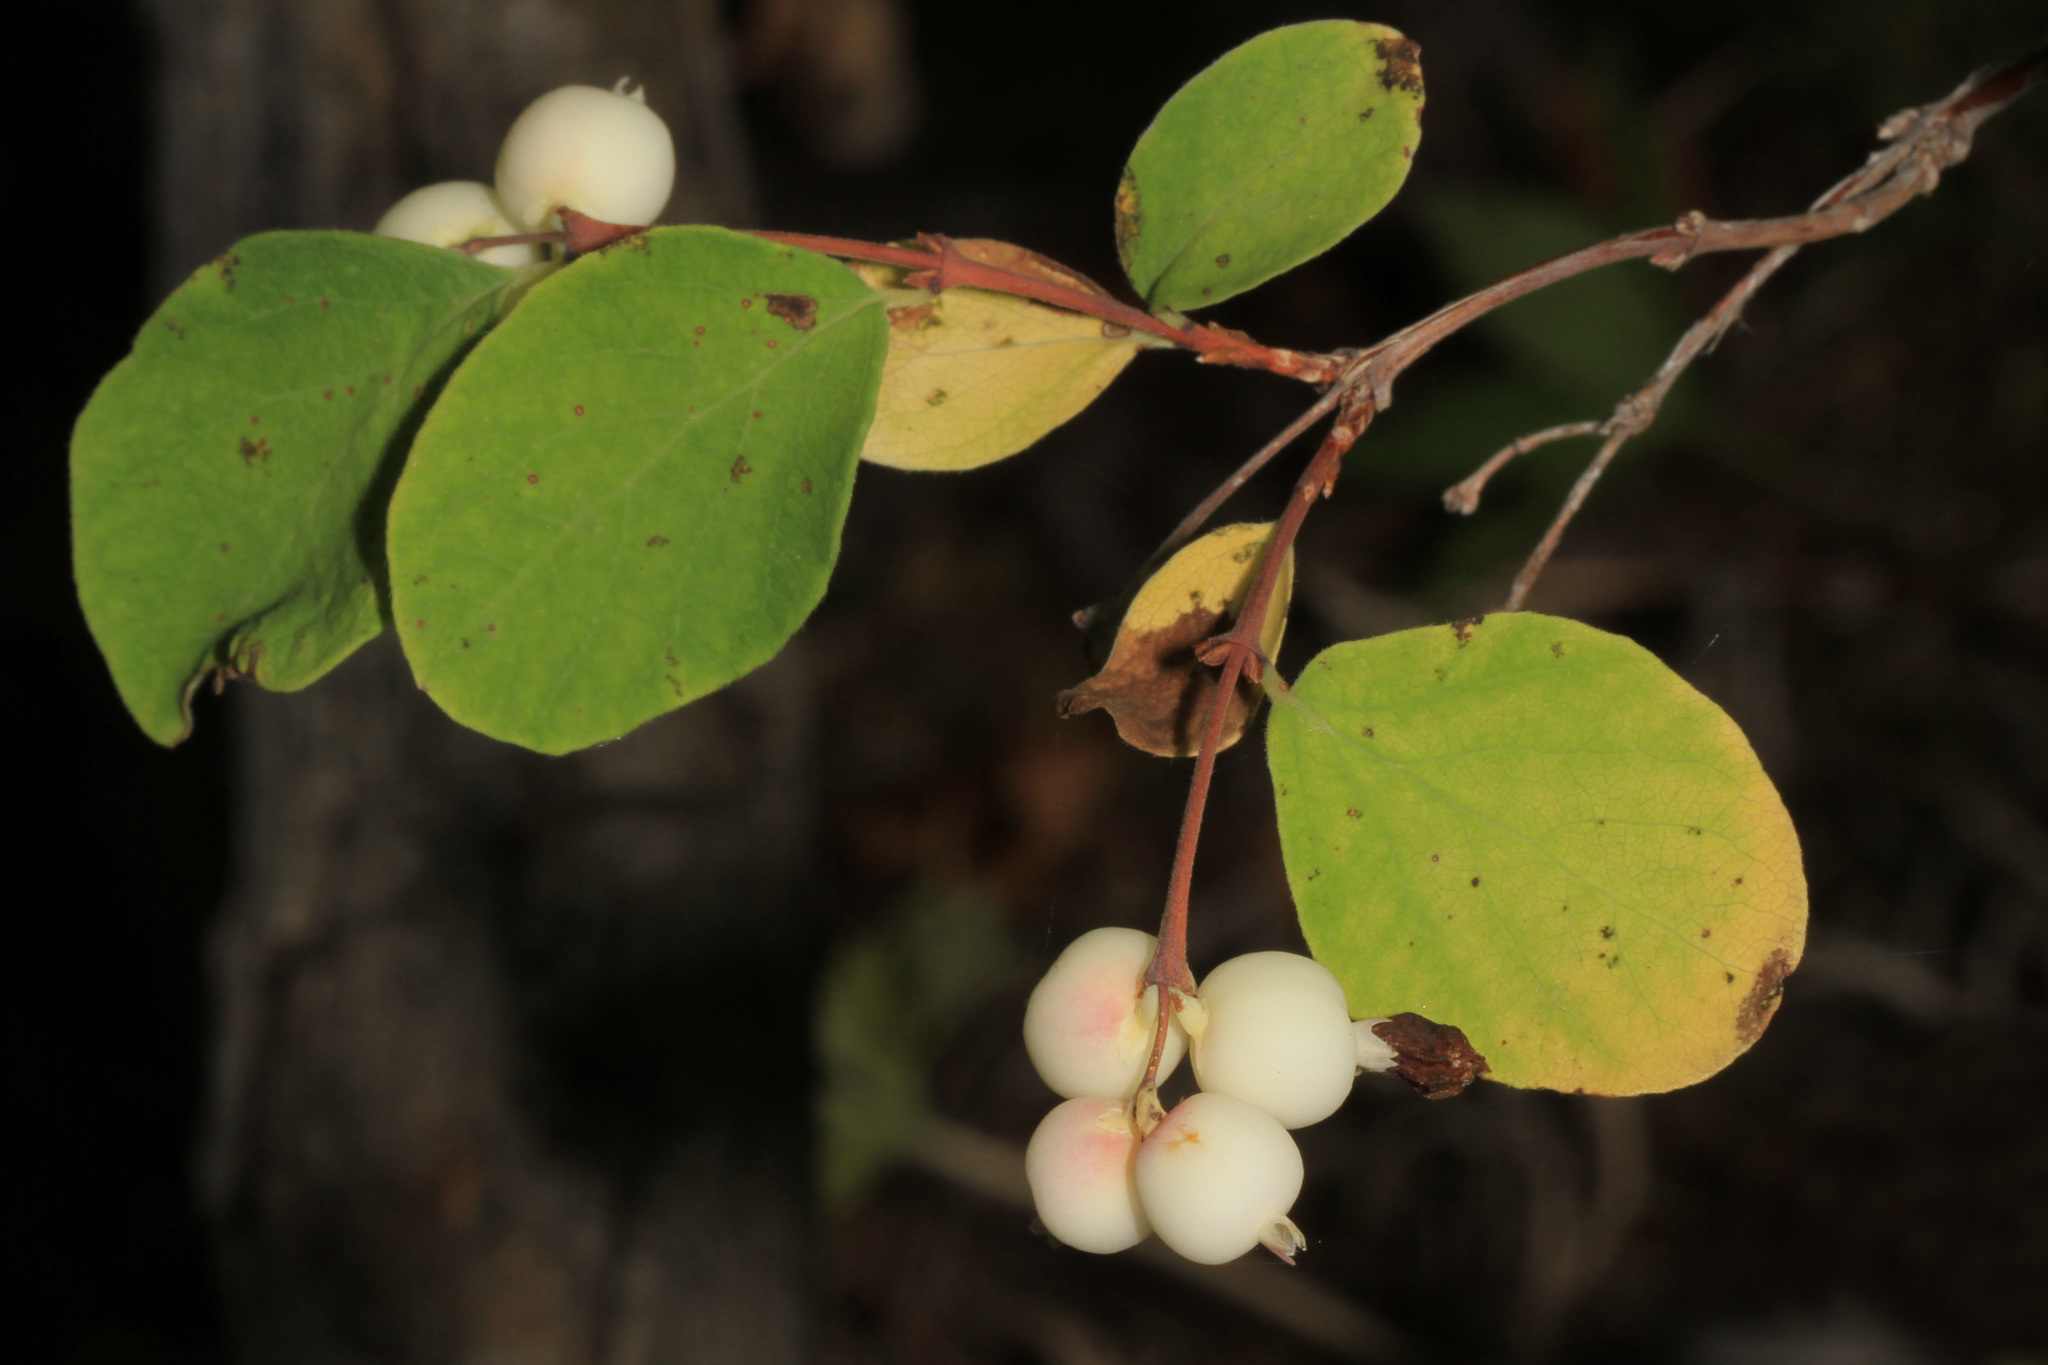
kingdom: Plantae
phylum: Tracheophyta
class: Magnoliopsida
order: Dipsacales
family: Caprifoliaceae
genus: Symphoricarpos
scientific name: Symphoricarpos albus
